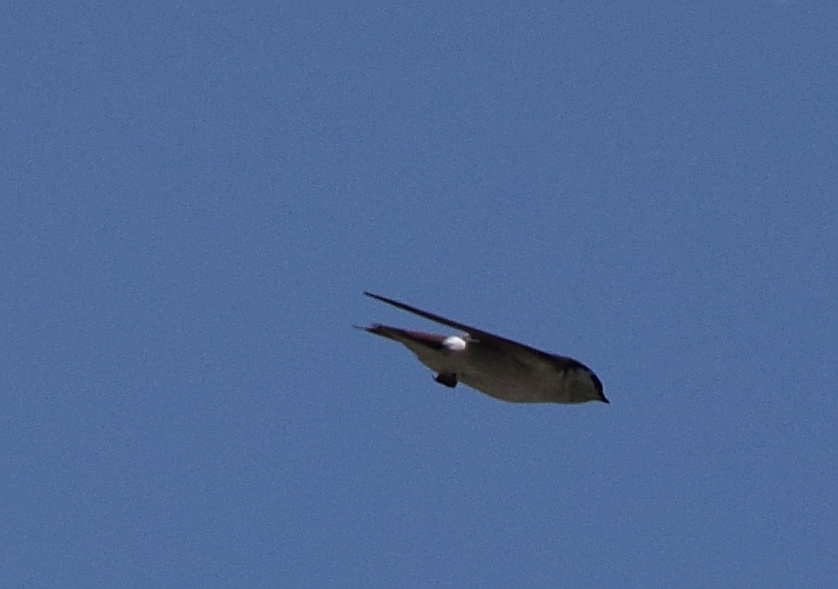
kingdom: Animalia
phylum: Chordata
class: Aves
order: Passeriformes
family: Hirundinidae
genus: Tachycineta
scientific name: Tachycineta thalassina
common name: Violet-green swallow
